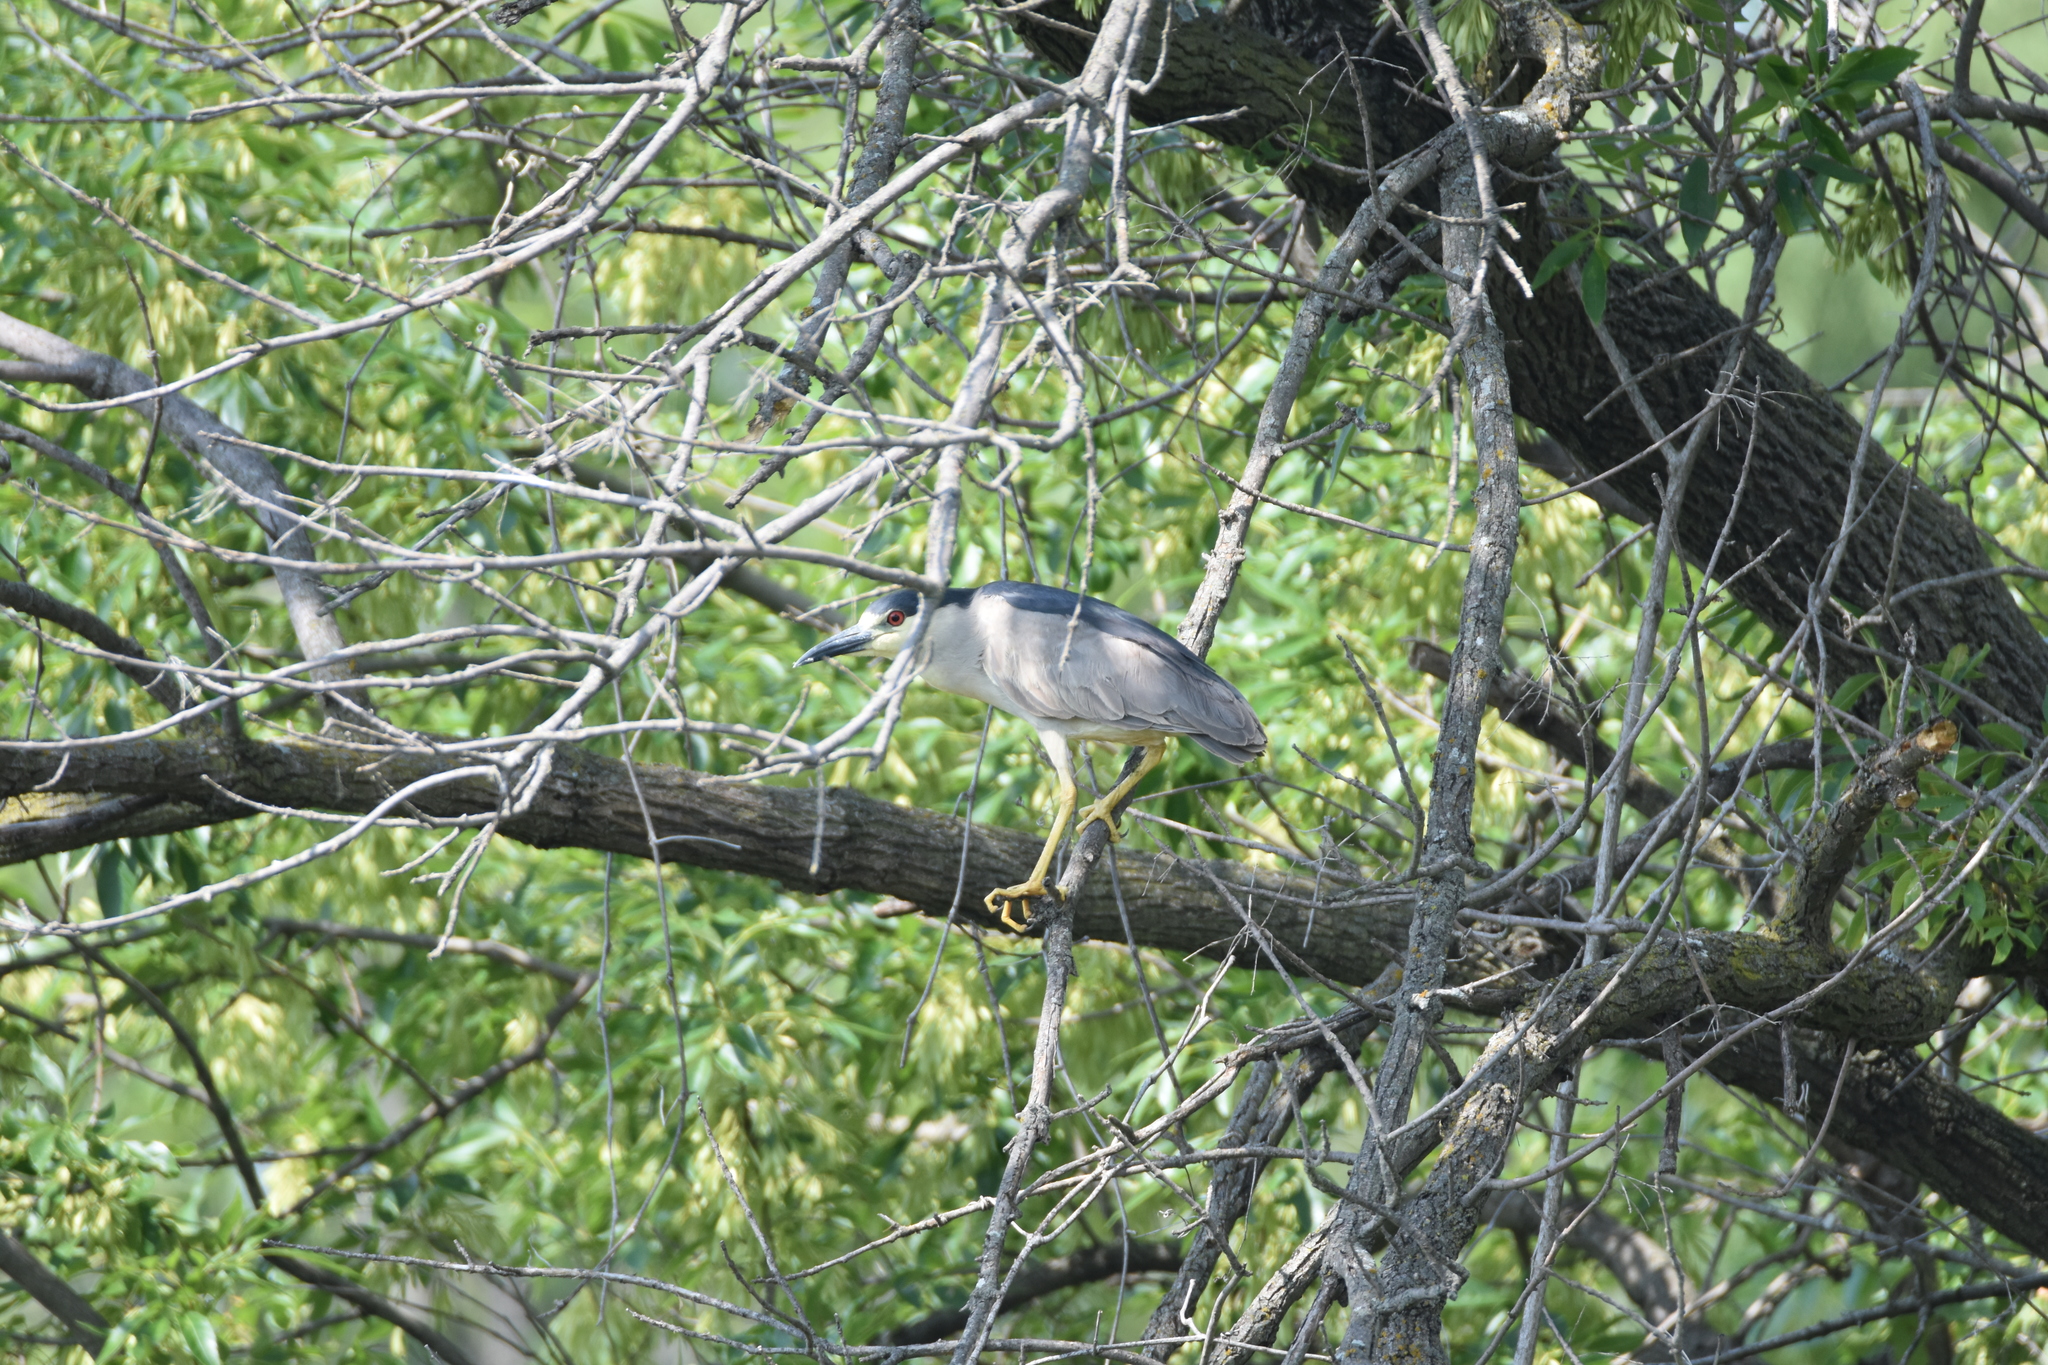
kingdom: Animalia
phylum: Chordata
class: Aves
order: Pelecaniformes
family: Ardeidae
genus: Nycticorax
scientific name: Nycticorax nycticorax
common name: Black-crowned night heron
